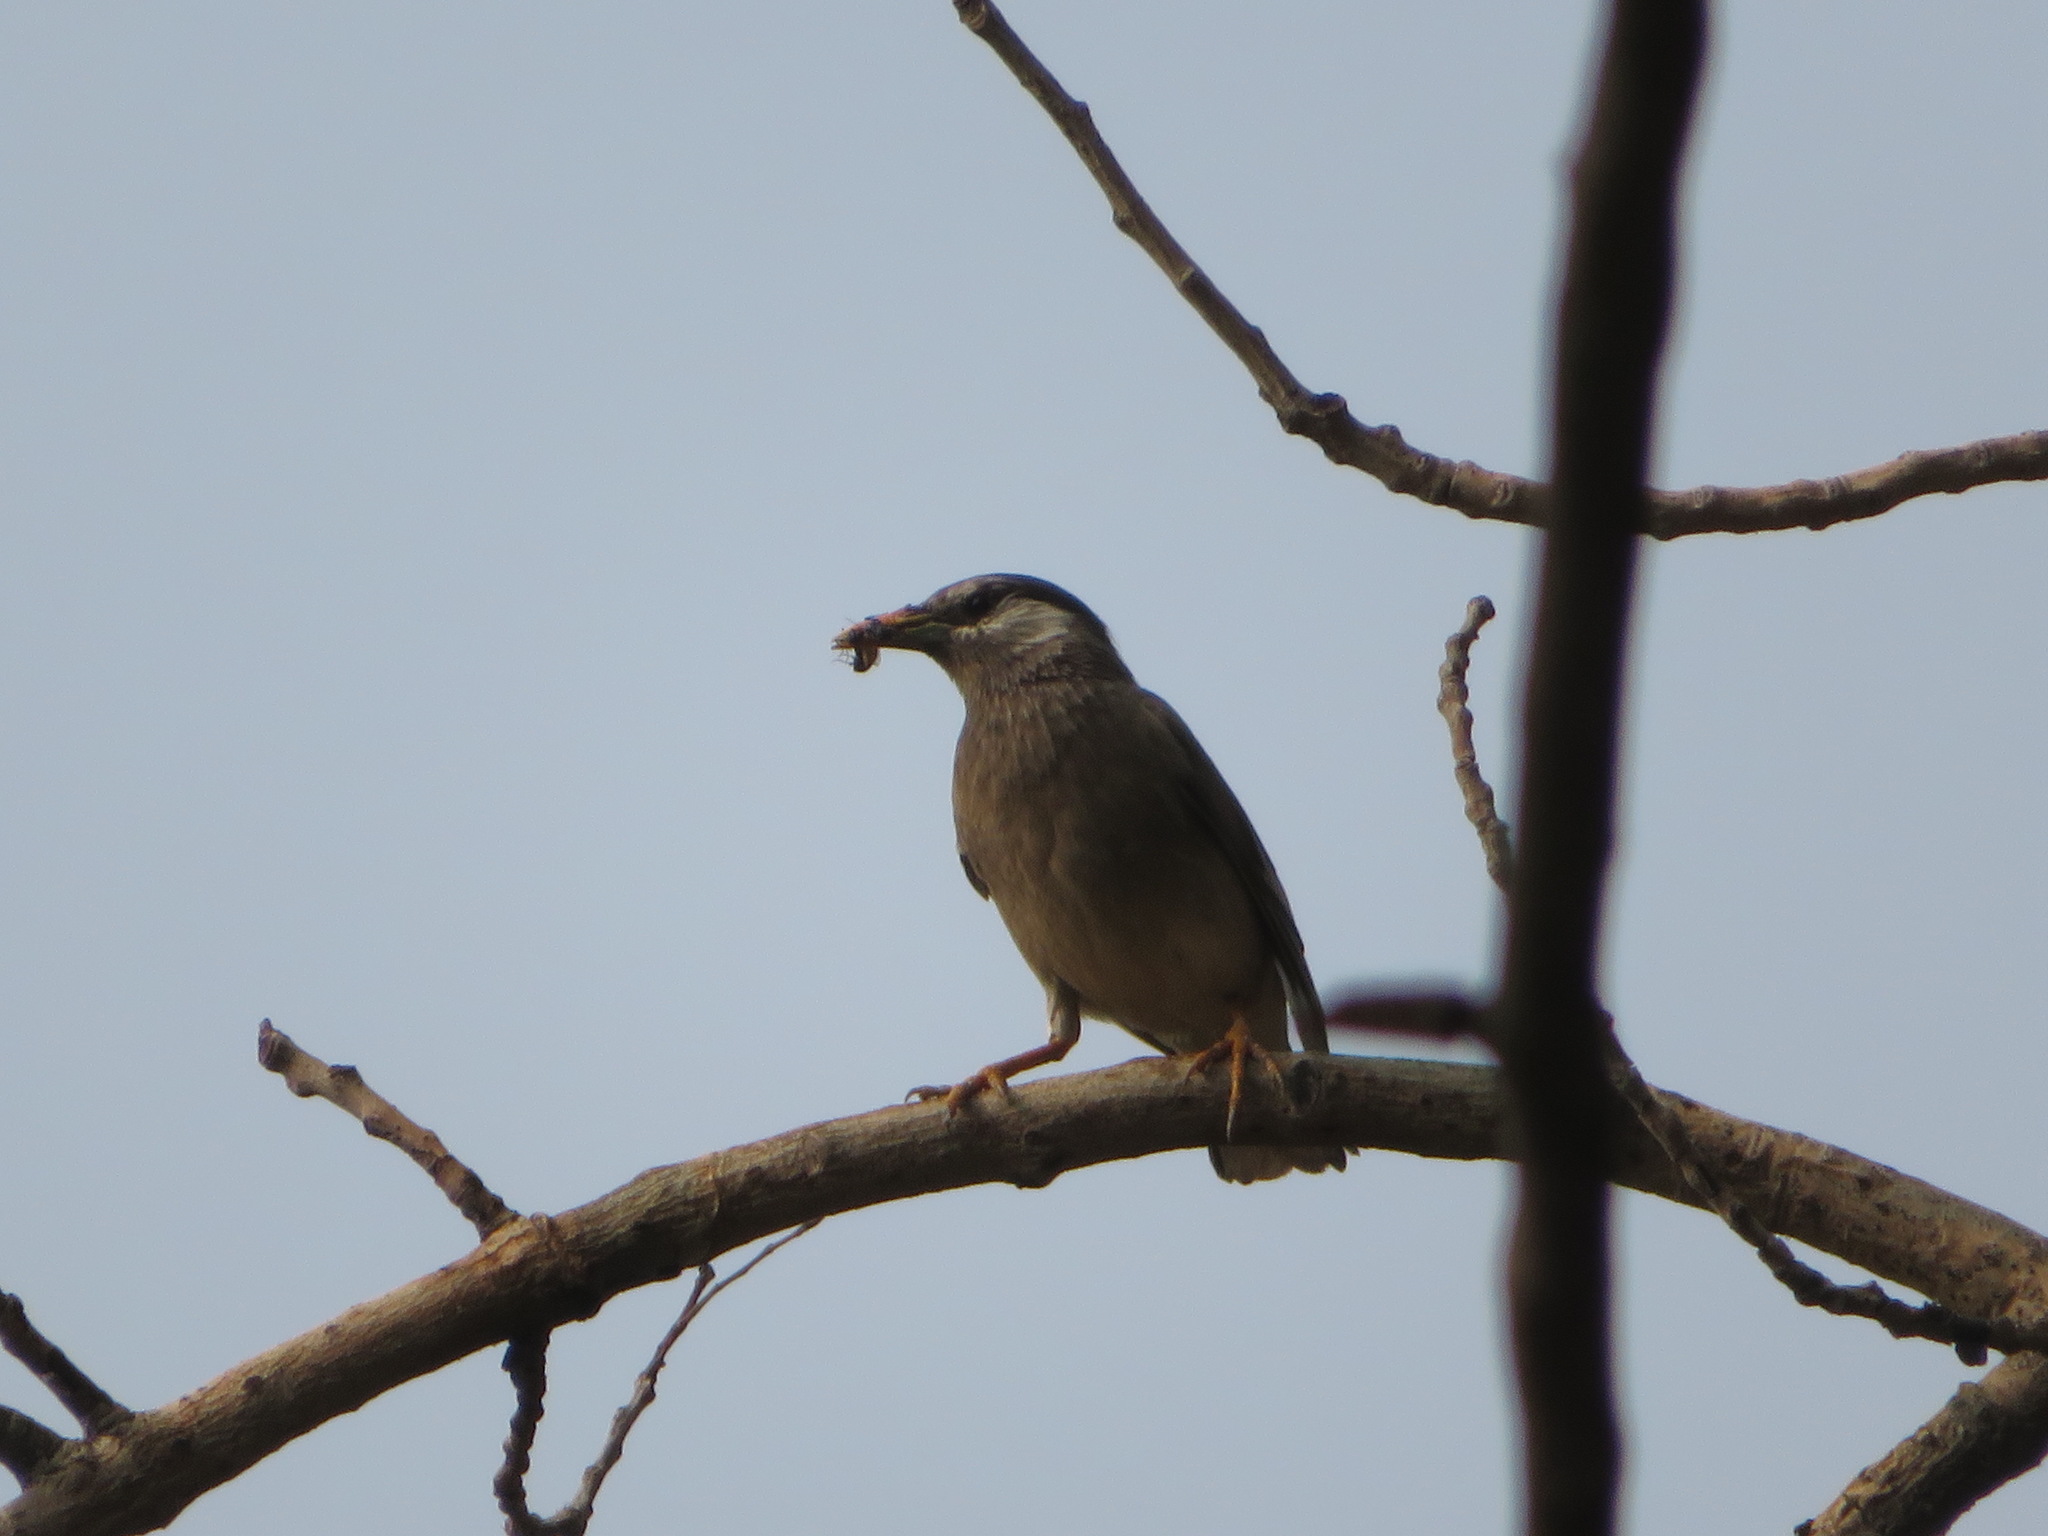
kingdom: Animalia
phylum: Chordata
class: Aves
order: Passeriformes
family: Sturnidae
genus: Spodiopsar
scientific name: Spodiopsar cineraceus
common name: White-cheeked starling
